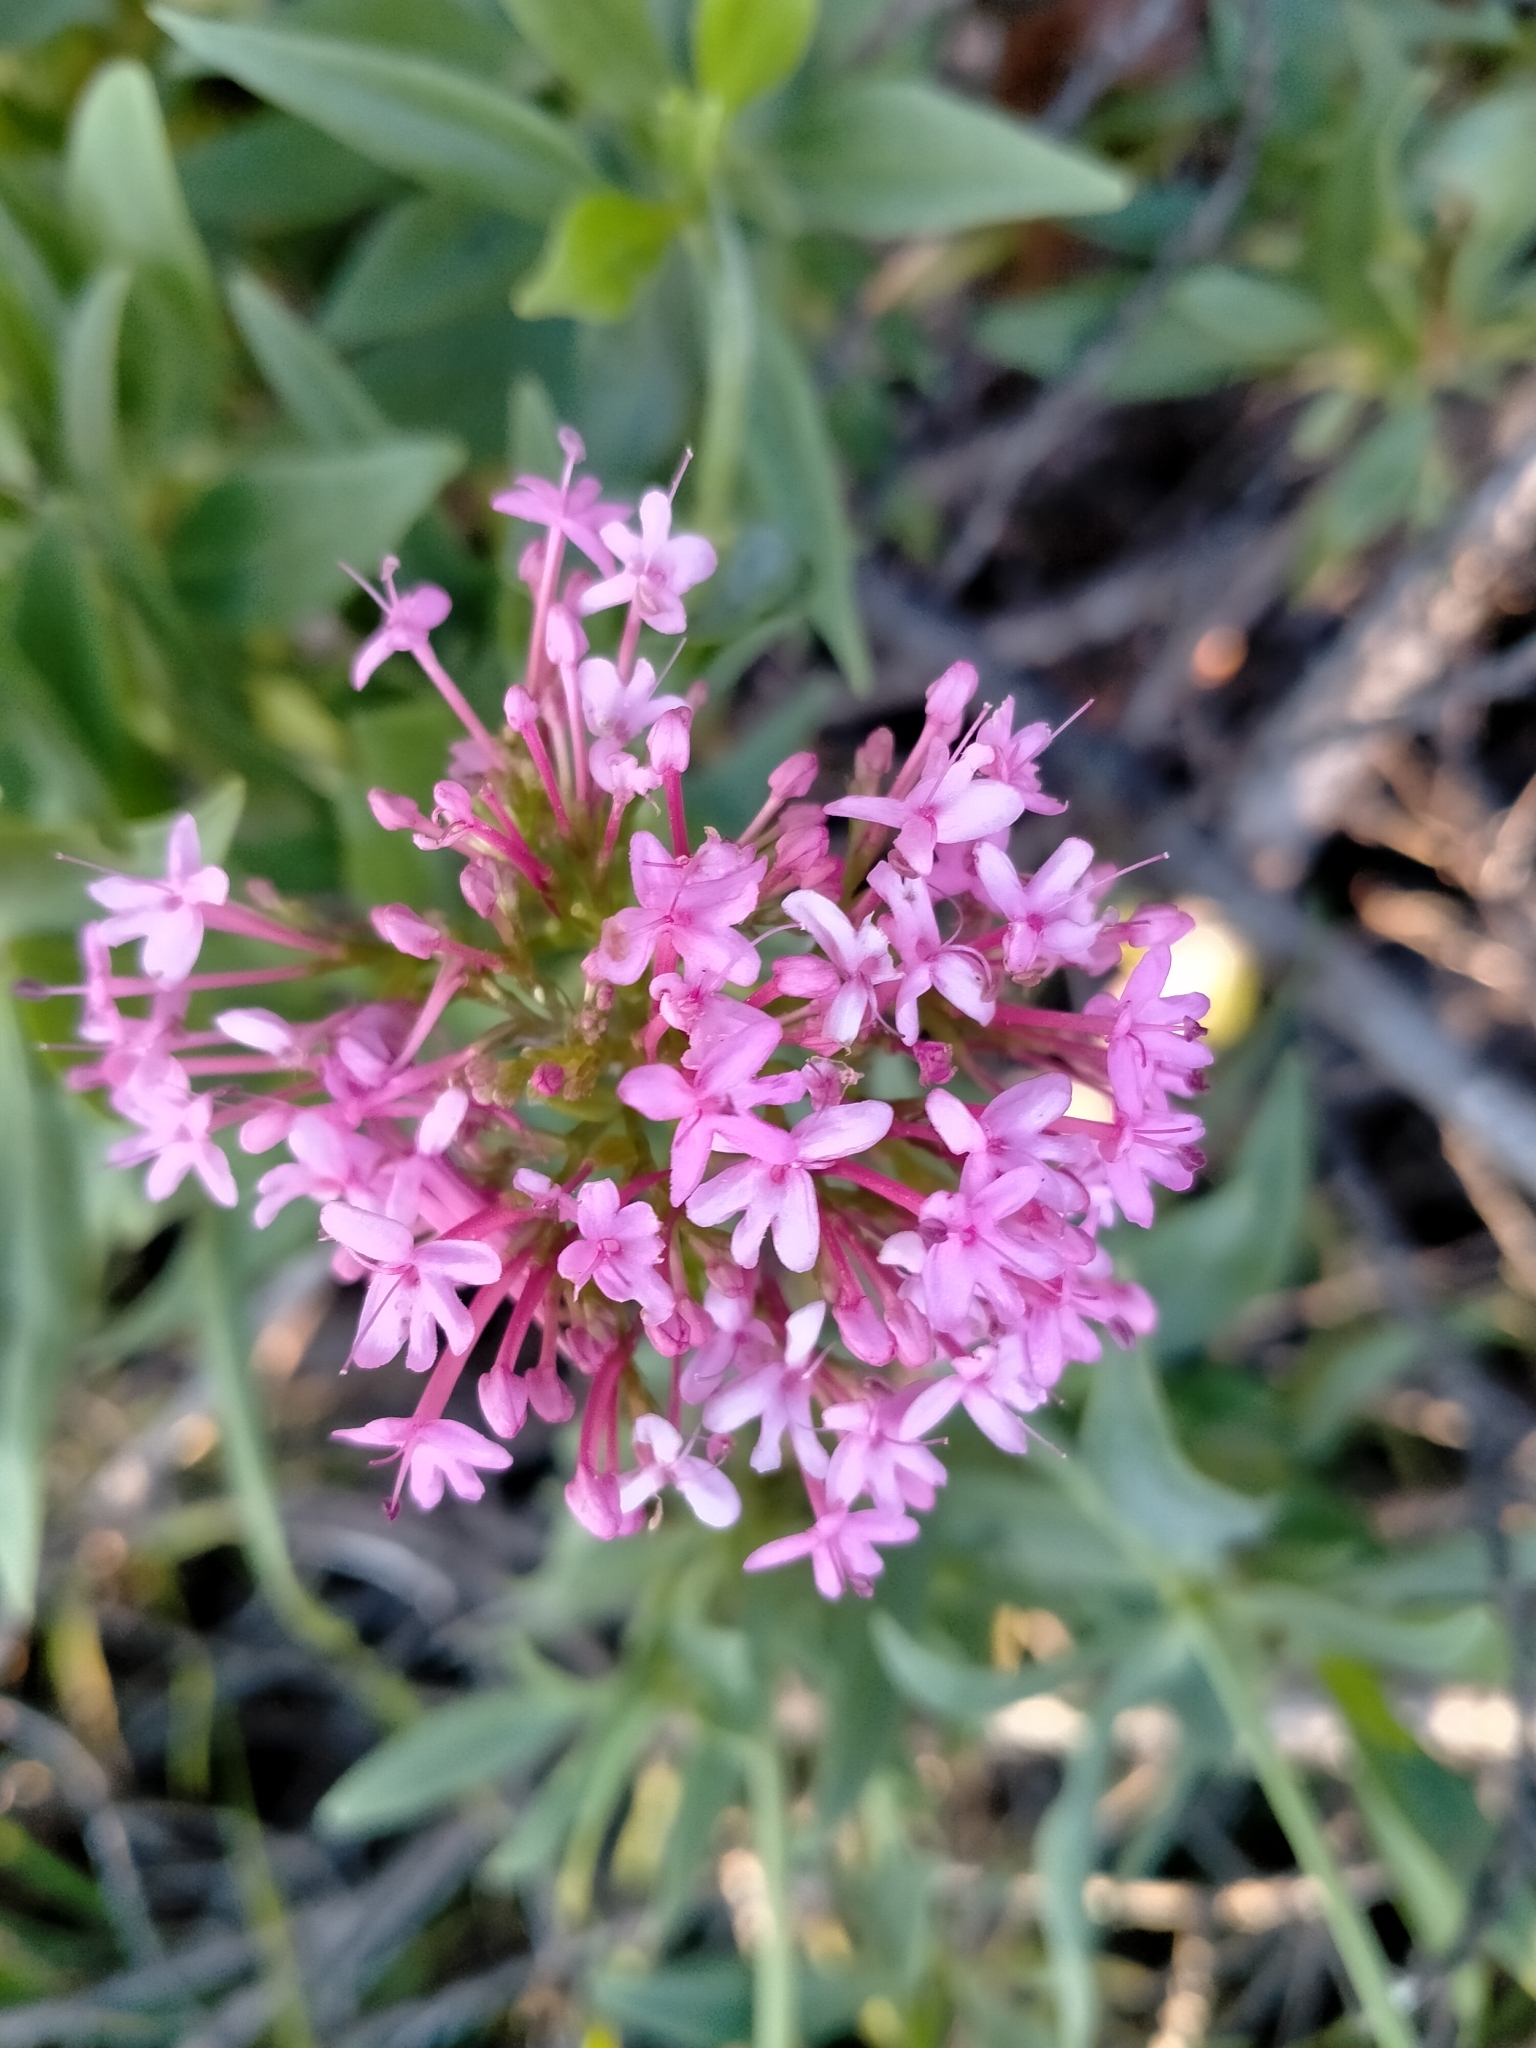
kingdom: Plantae
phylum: Tracheophyta
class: Magnoliopsida
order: Dipsacales
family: Caprifoliaceae
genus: Centranthus
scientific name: Centranthus ruber
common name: Red valerian
